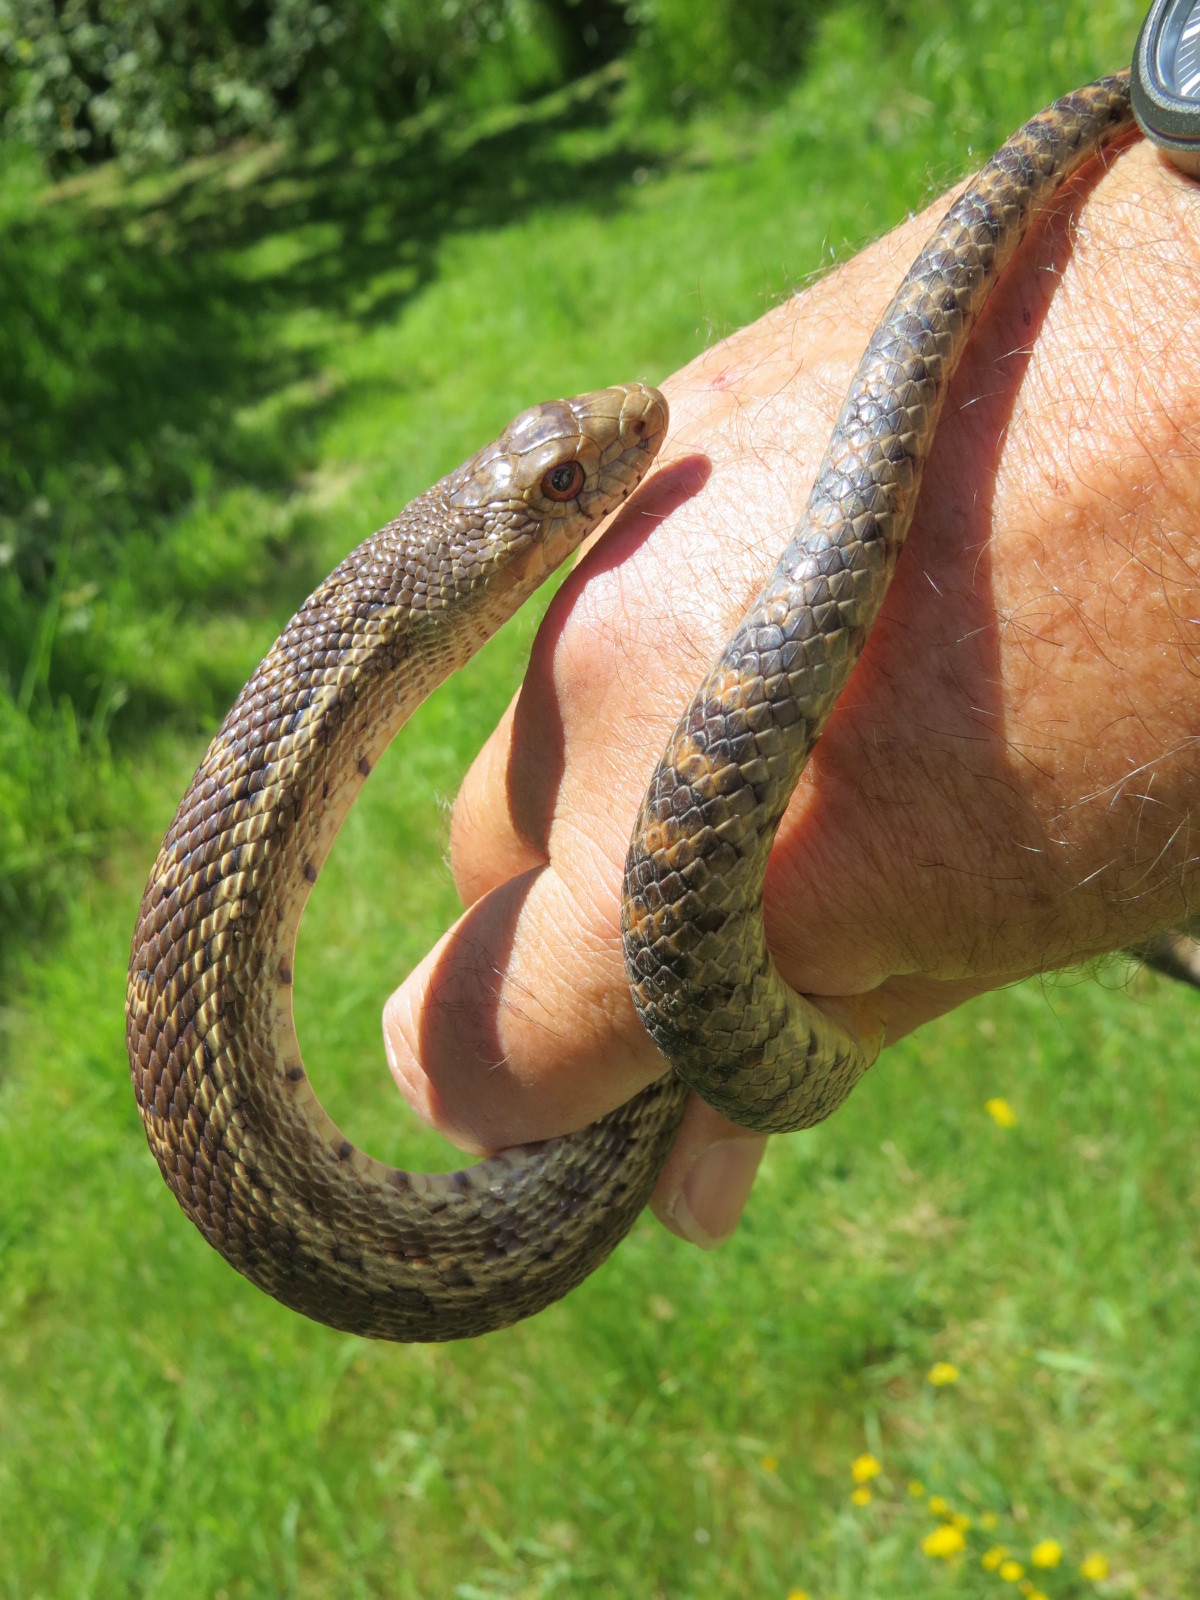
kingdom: Animalia
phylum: Chordata
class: Squamata
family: Colubridae
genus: Pituophis
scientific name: Pituophis catenifer
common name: Gopher snake
